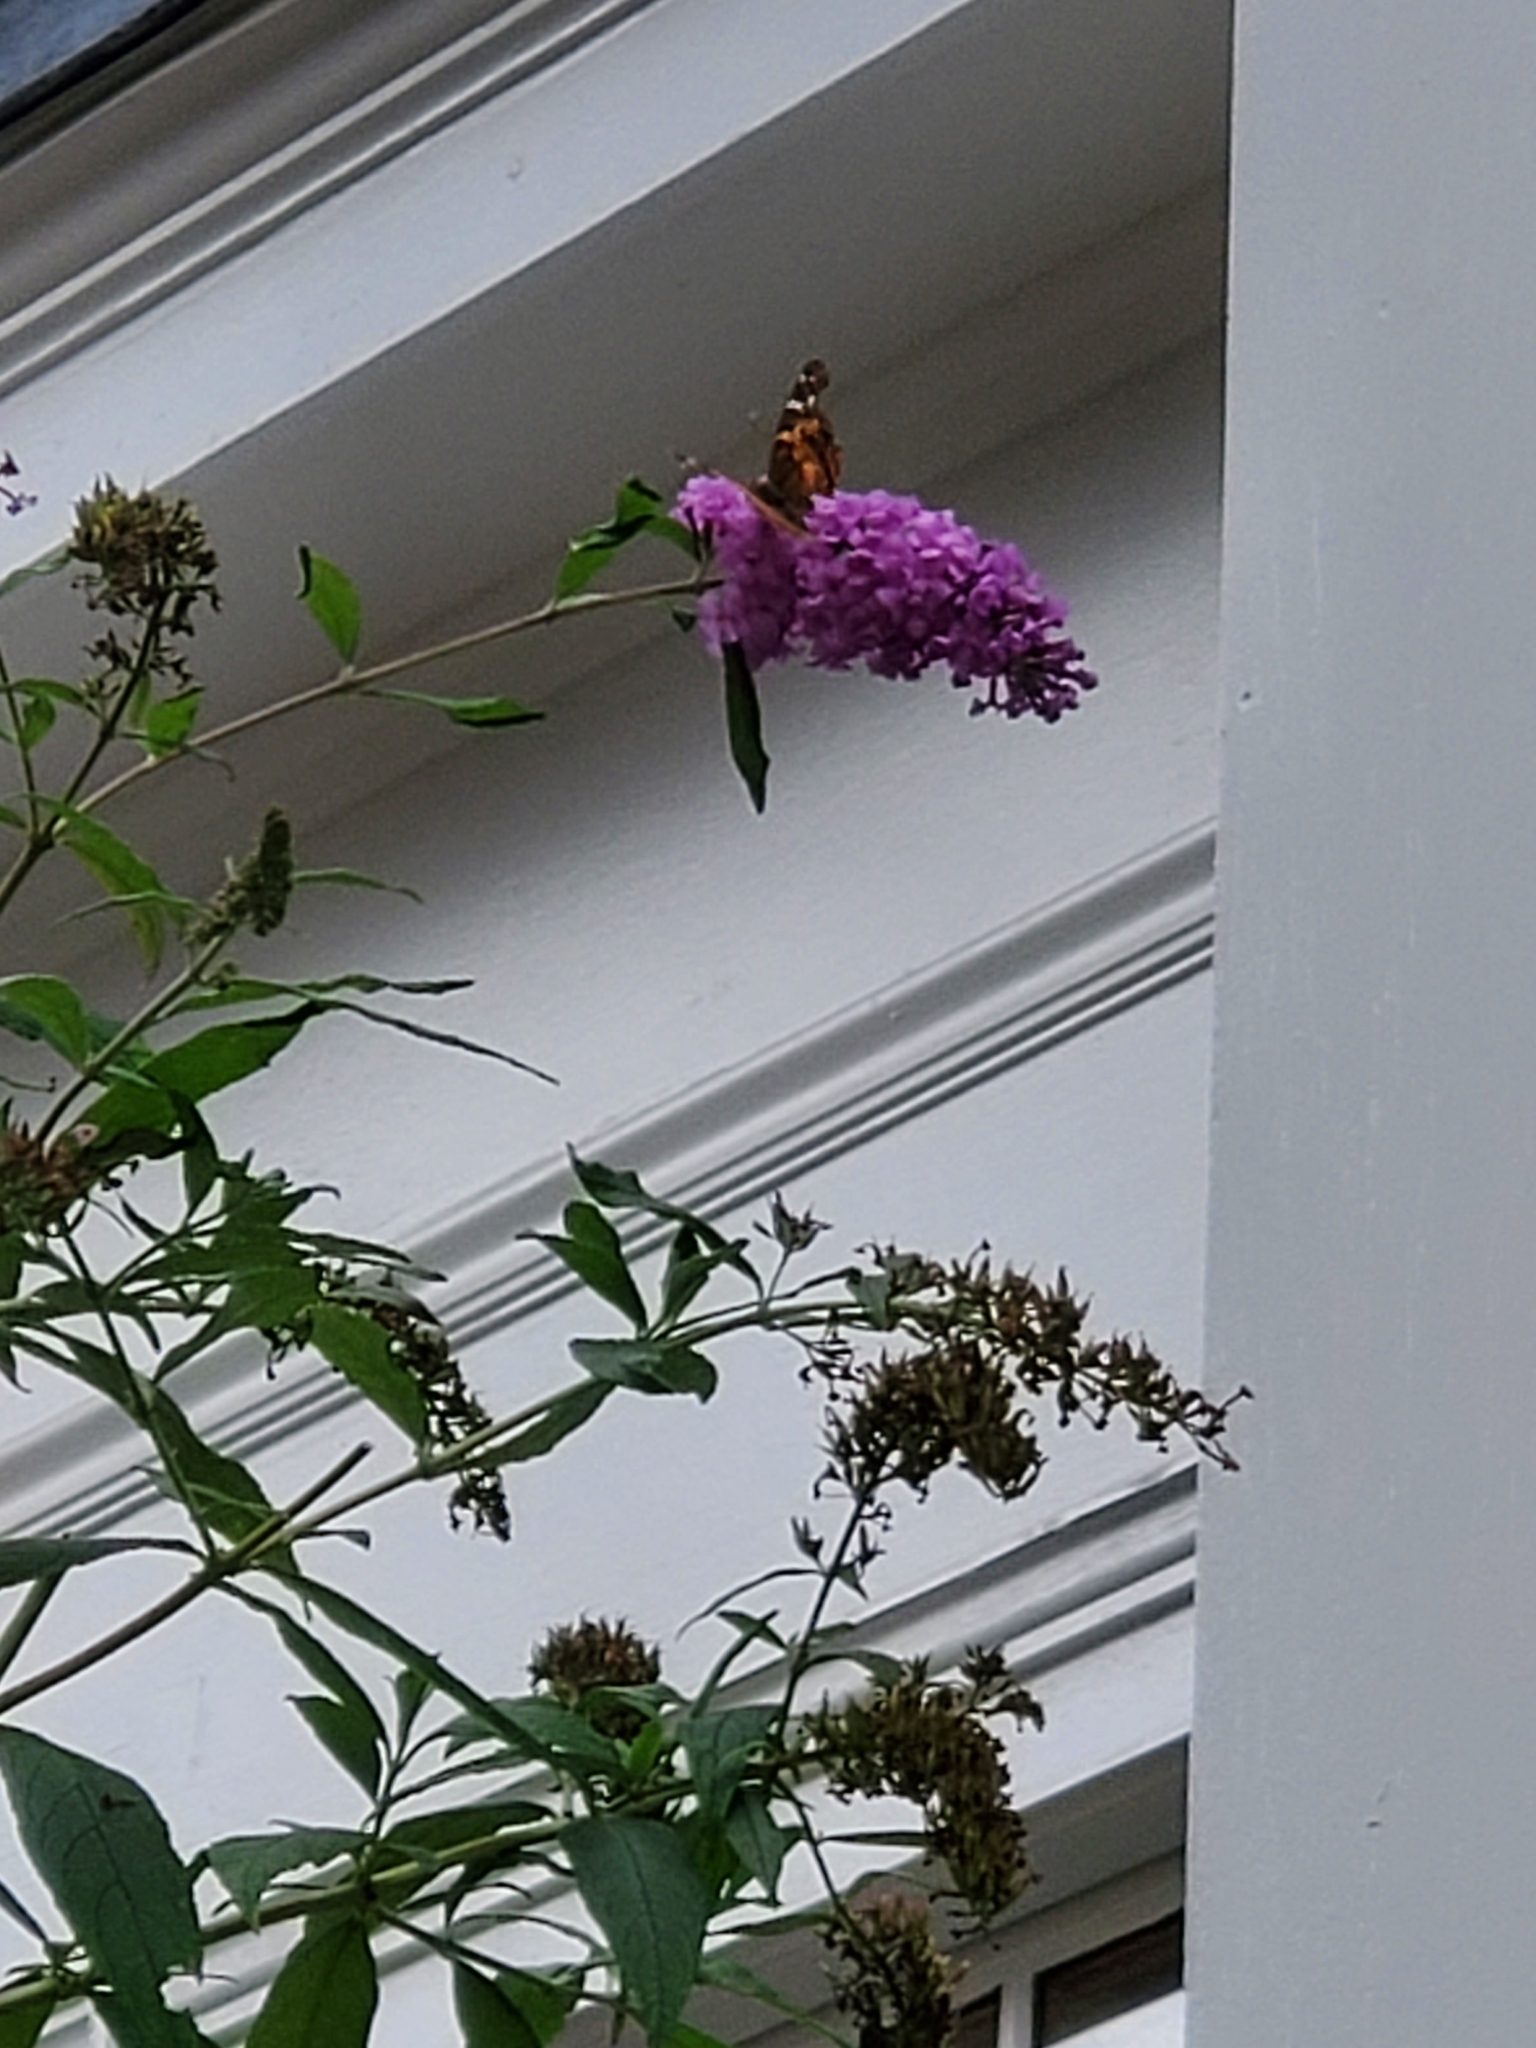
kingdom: Animalia
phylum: Arthropoda
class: Insecta
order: Lepidoptera
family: Nymphalidae
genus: Vanessa
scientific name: Vanessa virginiensis
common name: American lady
